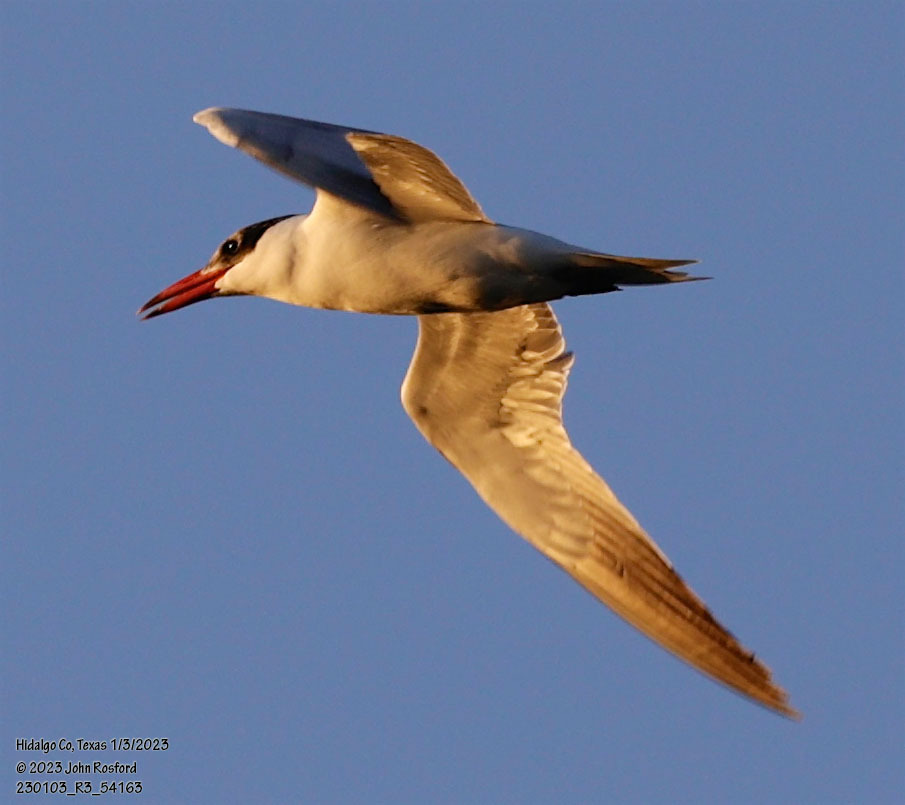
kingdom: Animalia
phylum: Chordata
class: Aves
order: Charadriiformes
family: Laridae
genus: Hydroprogne
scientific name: Hydroprogne caspia
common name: Caspian tern
